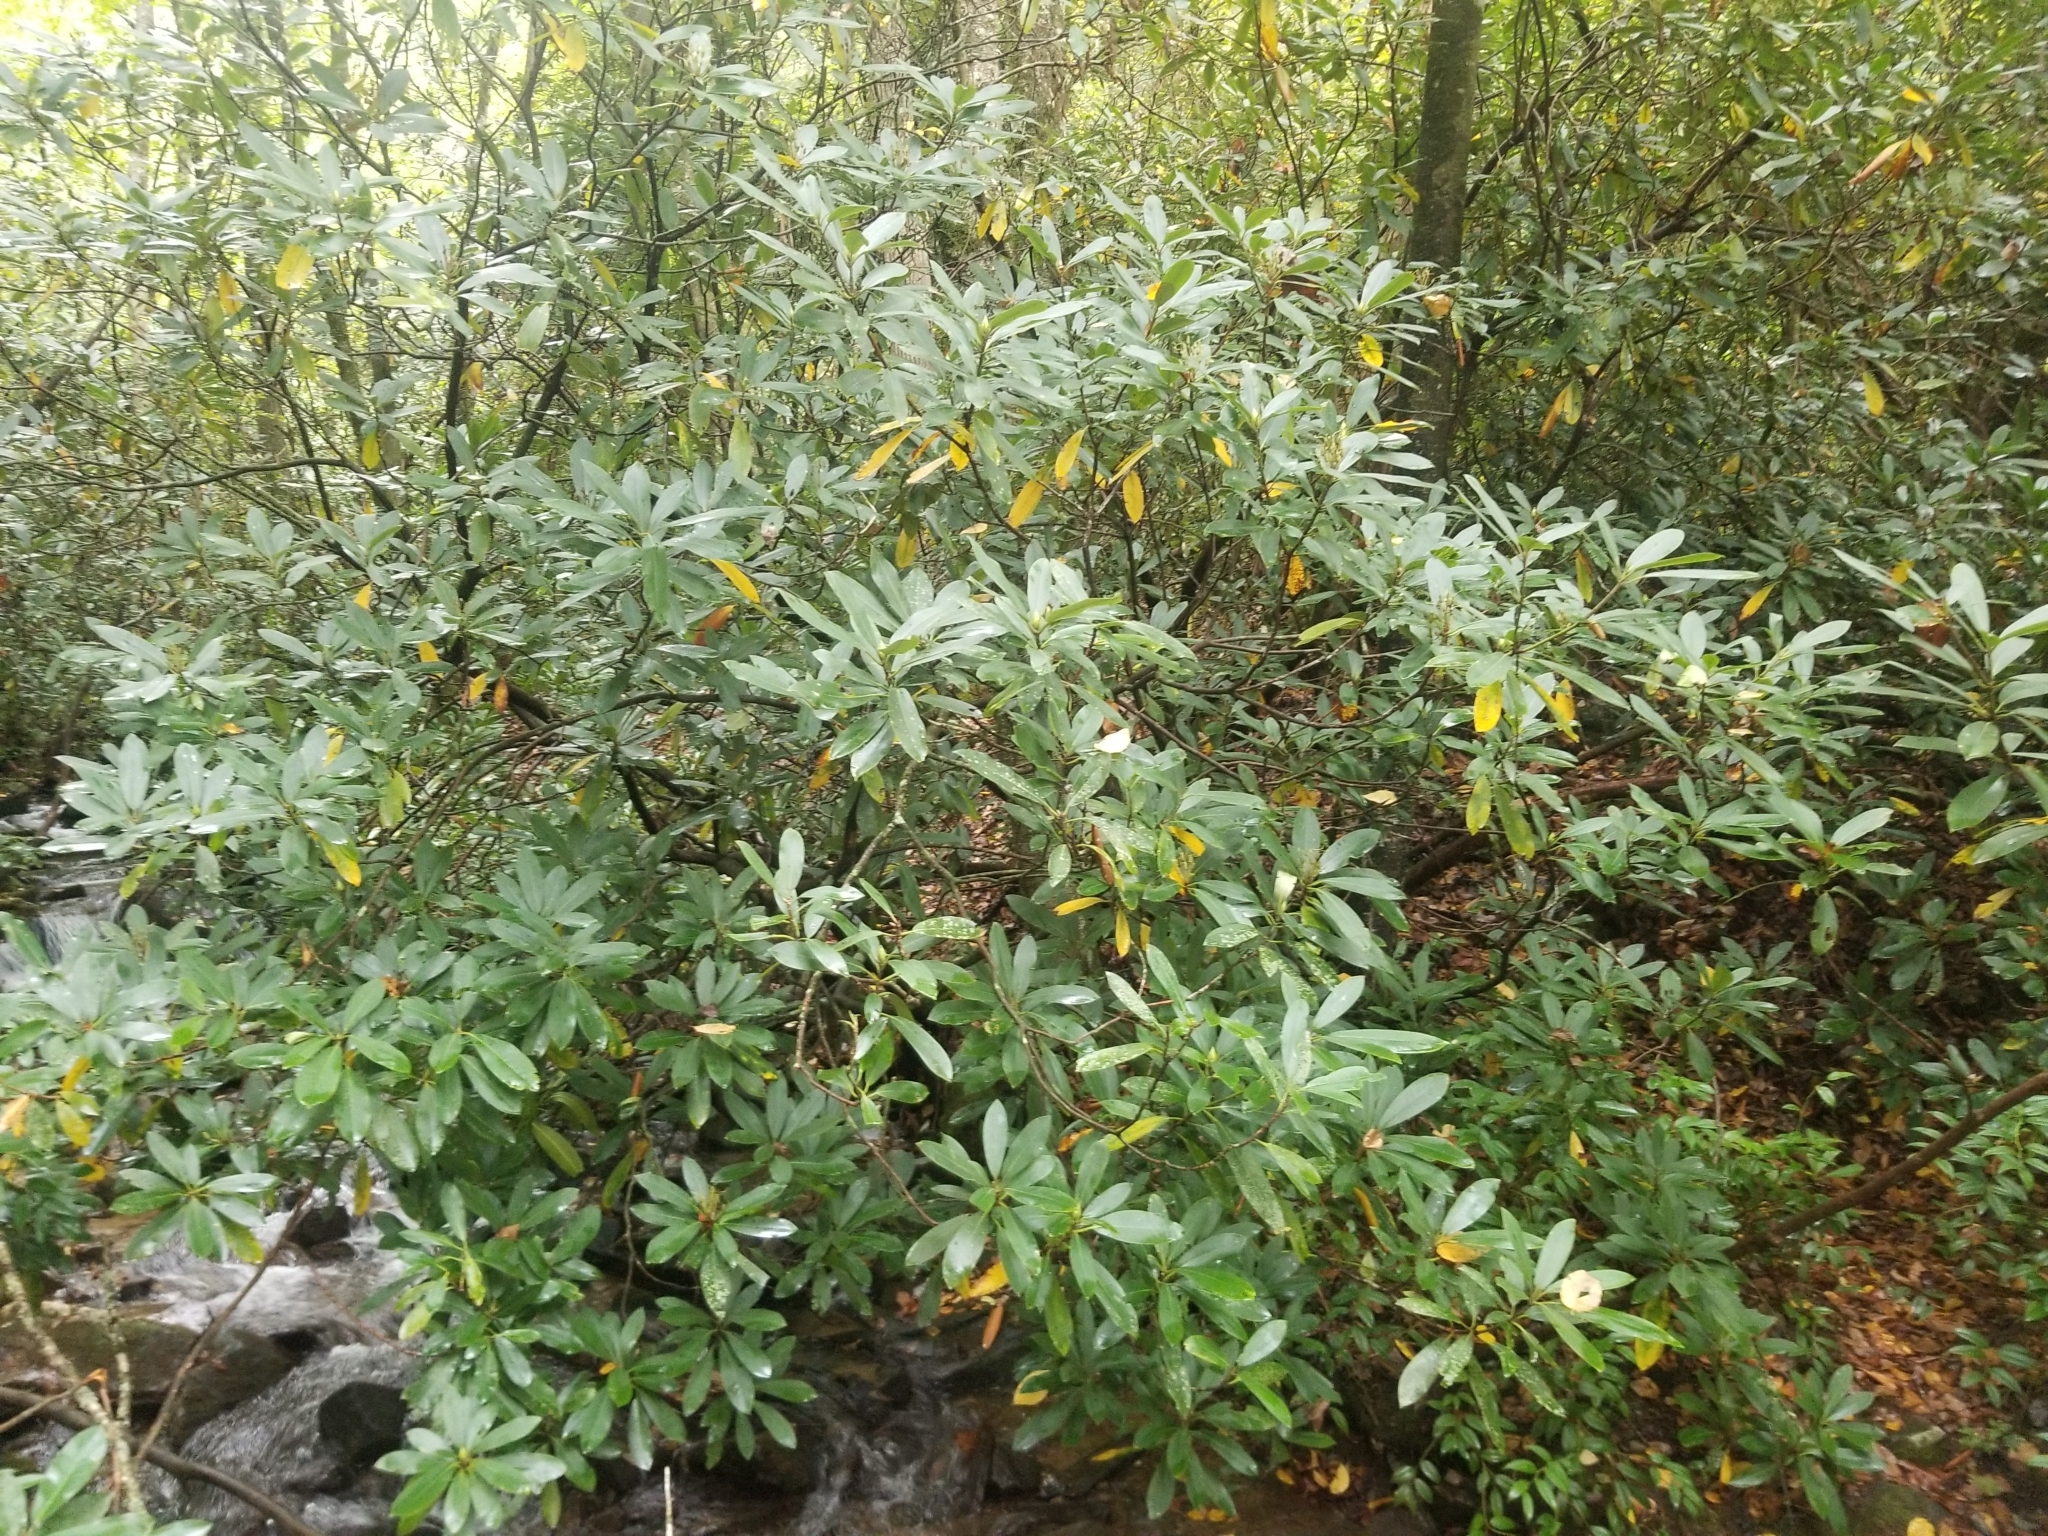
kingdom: Plantae
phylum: Tracheophyta
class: Magnoliopsida
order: Ericales
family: Ericaceae
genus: Rhododendron
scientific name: Rhododendron maximum
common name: Great rhododendron
